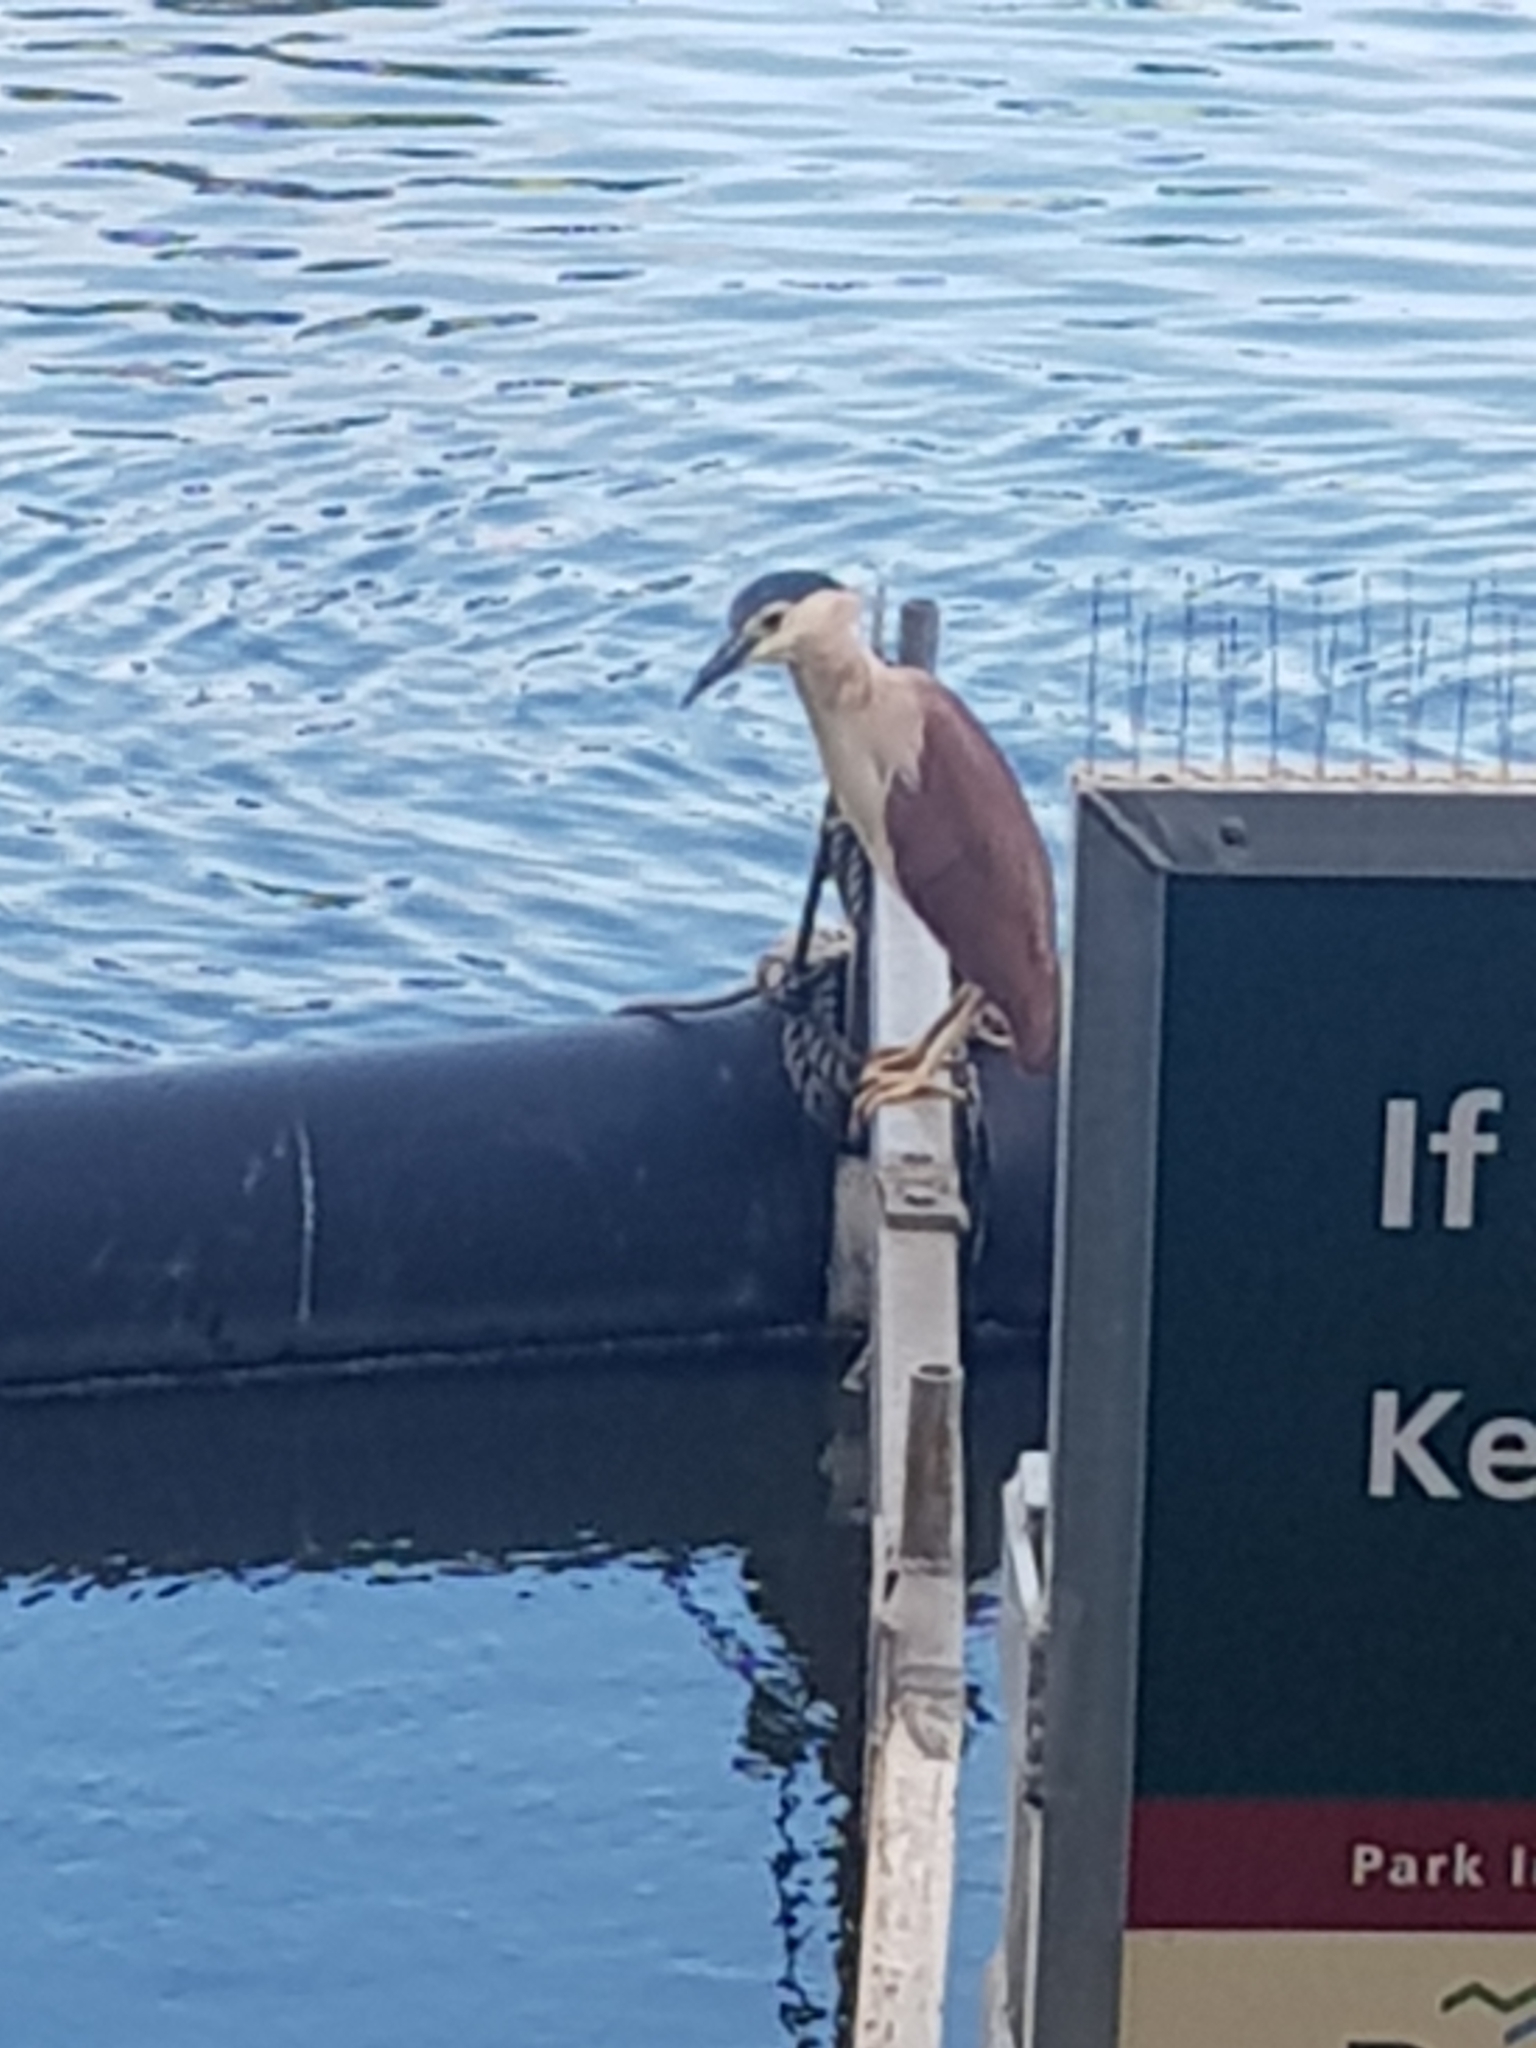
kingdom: Animalia
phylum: Chordata
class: Aves
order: Pelecaniformes
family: Ardeidae
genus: Nycticorax
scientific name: Nycticorax caledonicus
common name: Rufous night-heron
